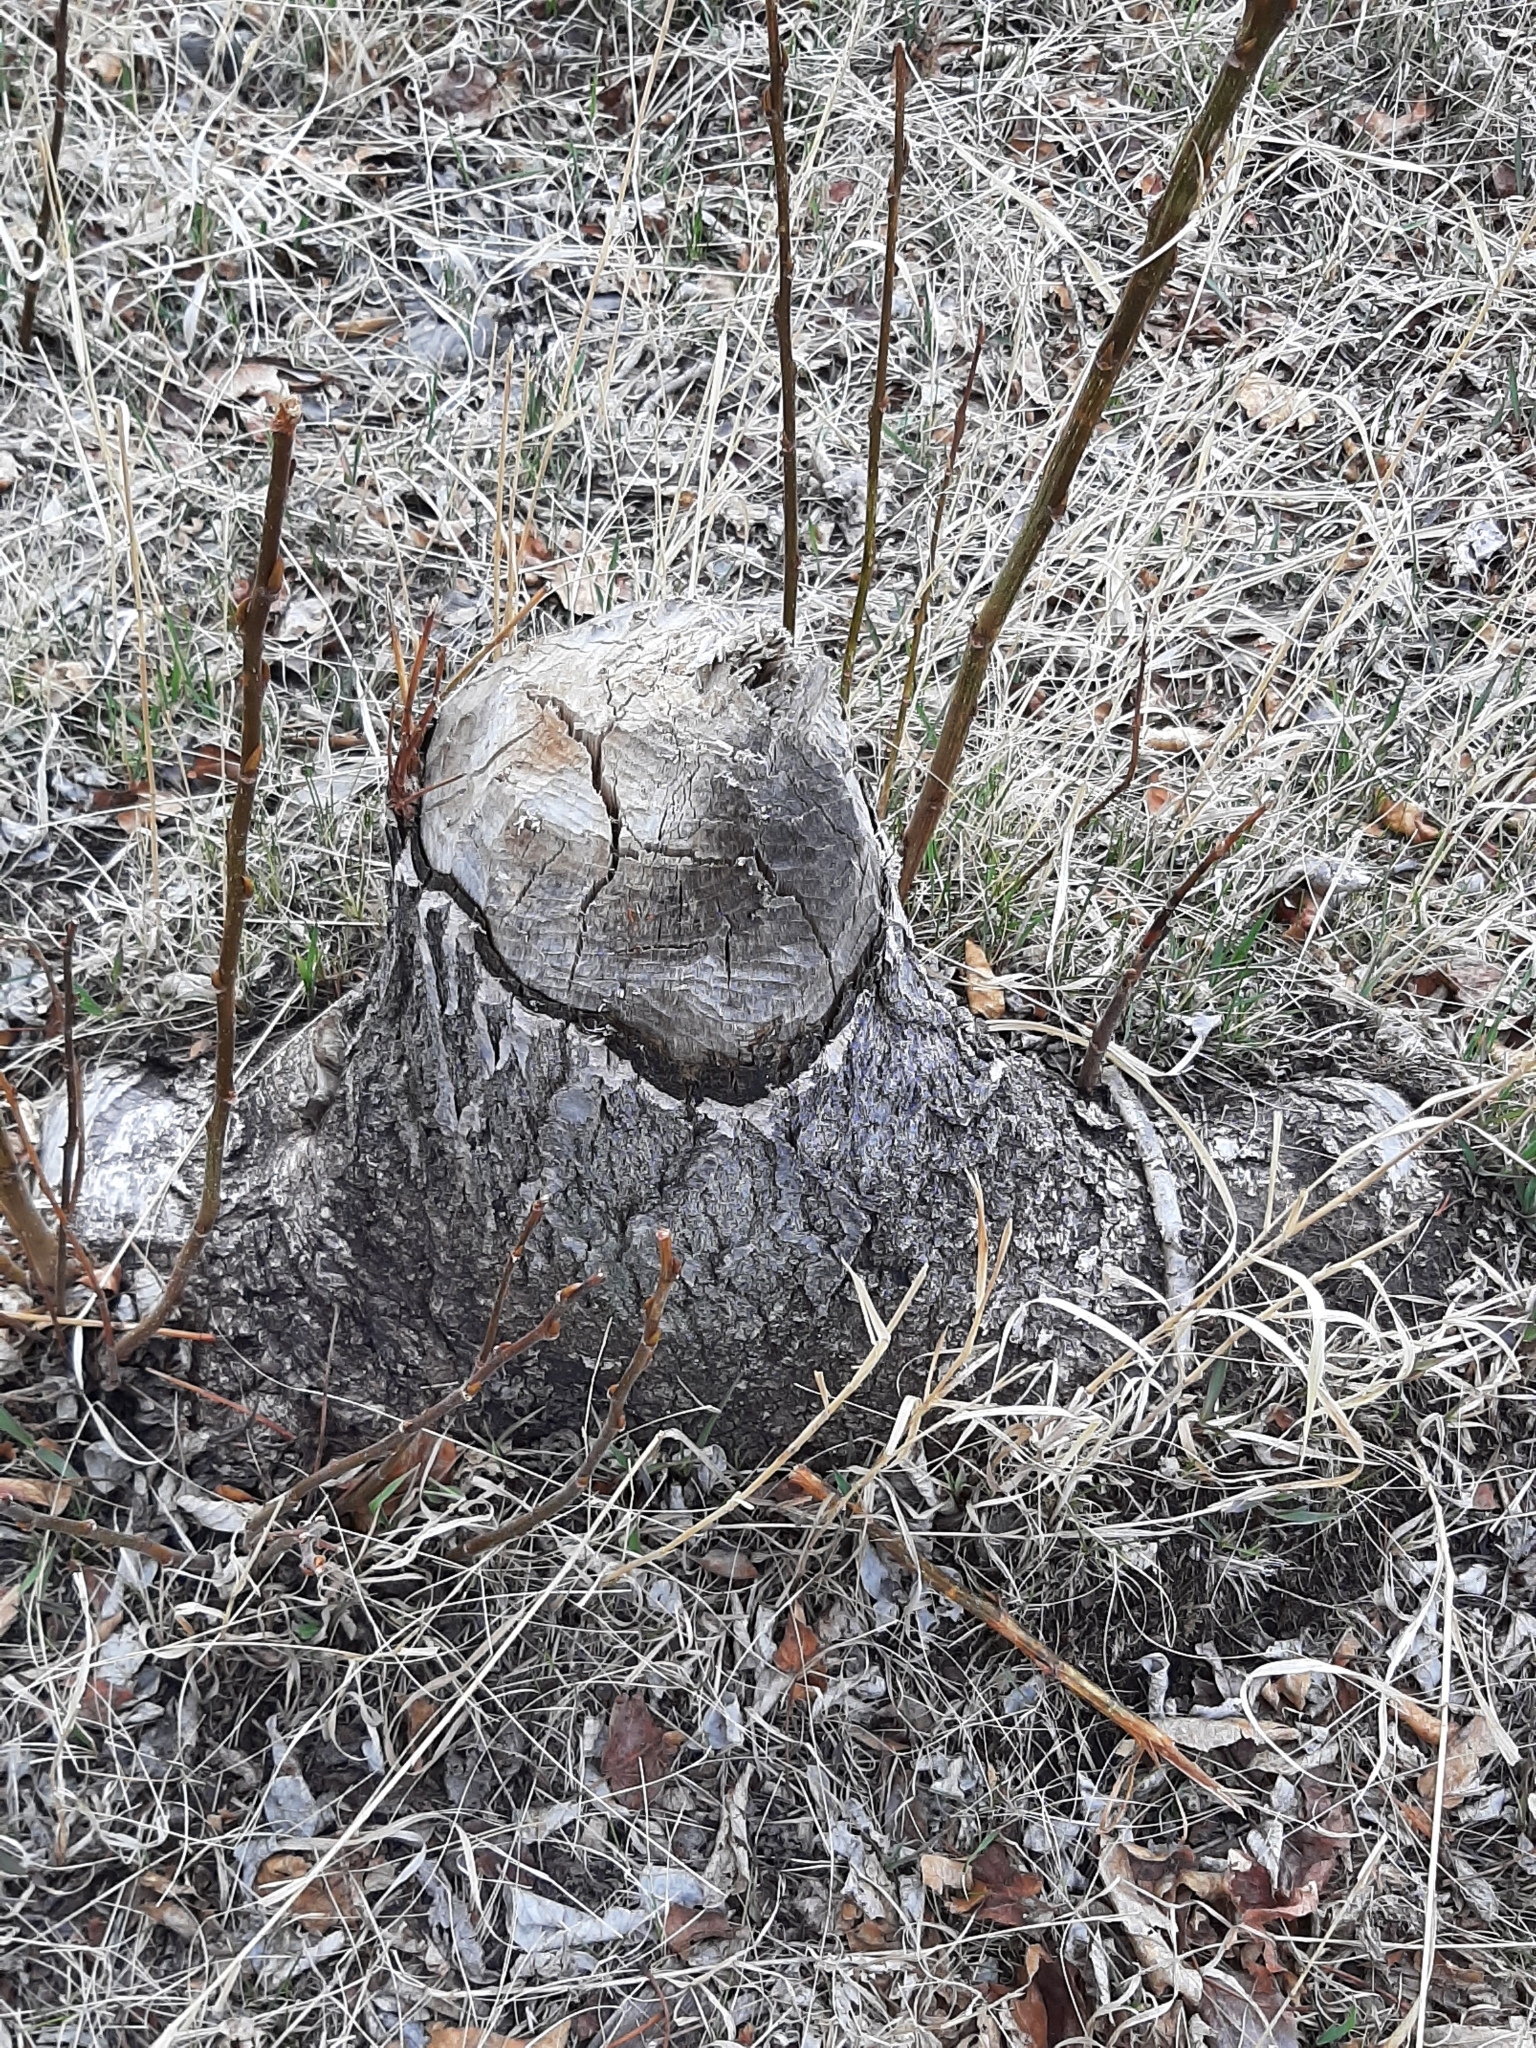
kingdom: Animalia
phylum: Chordata
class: Mammalia
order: Rodentia
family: Castoridae
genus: Castor
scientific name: Castor canadensis
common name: American beaver
